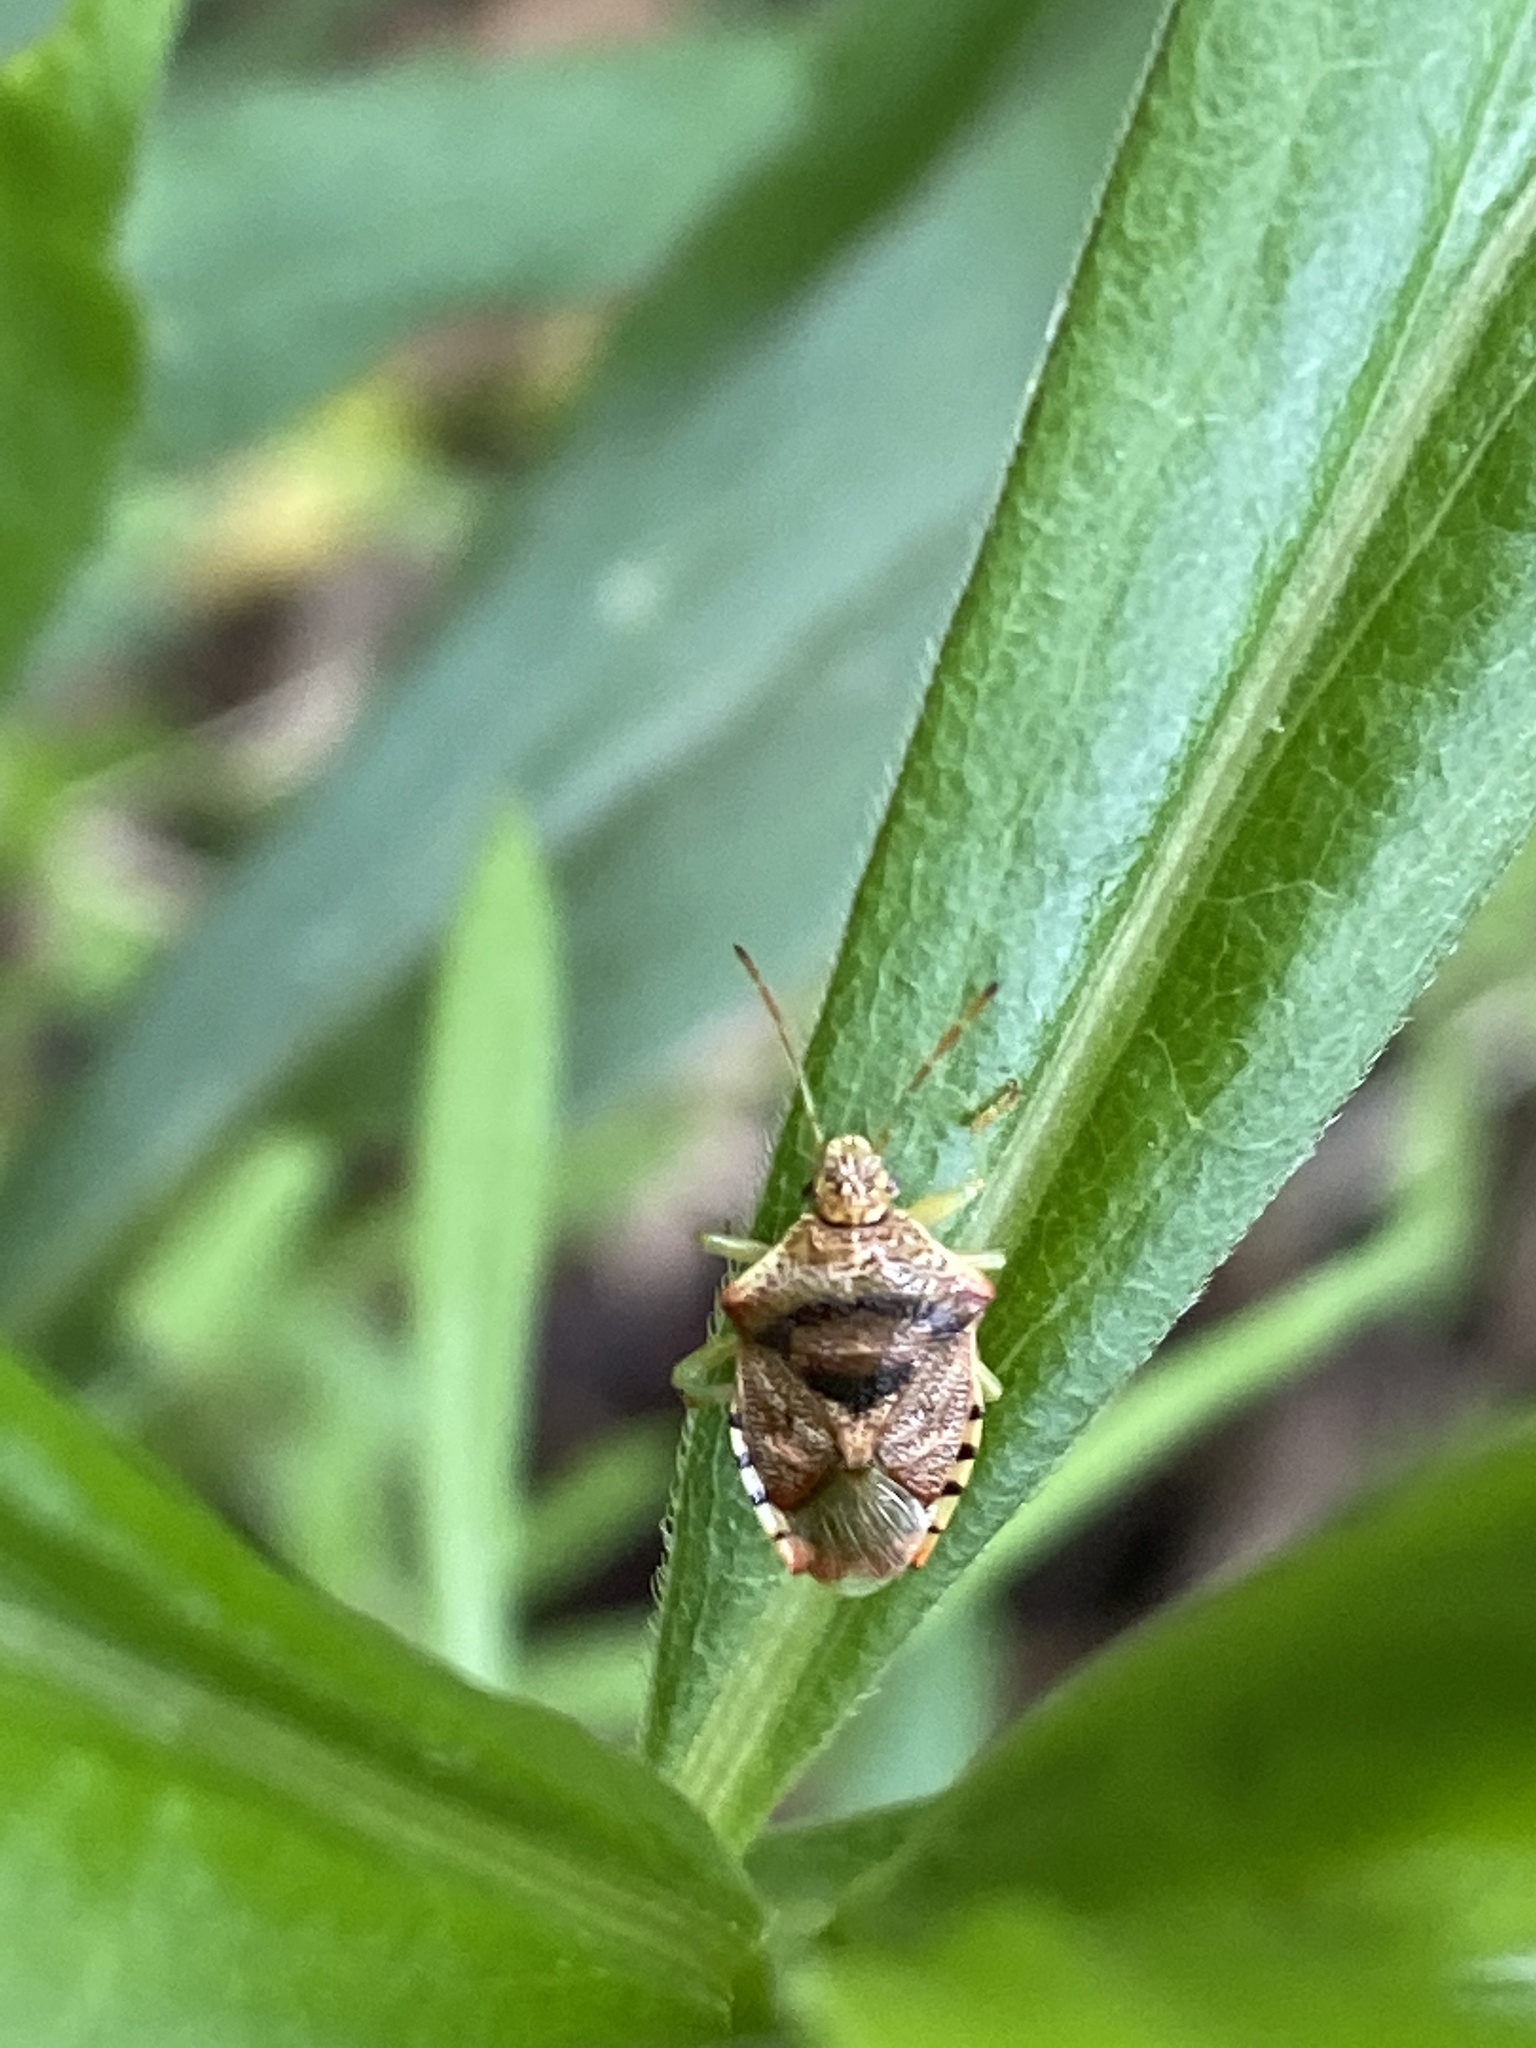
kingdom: Animalia
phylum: Arthropoda
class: Insecta
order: Hemiptera
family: Acanthosomatidae
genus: Elasmucha
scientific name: Elasmucha grisea
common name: Parent bug
